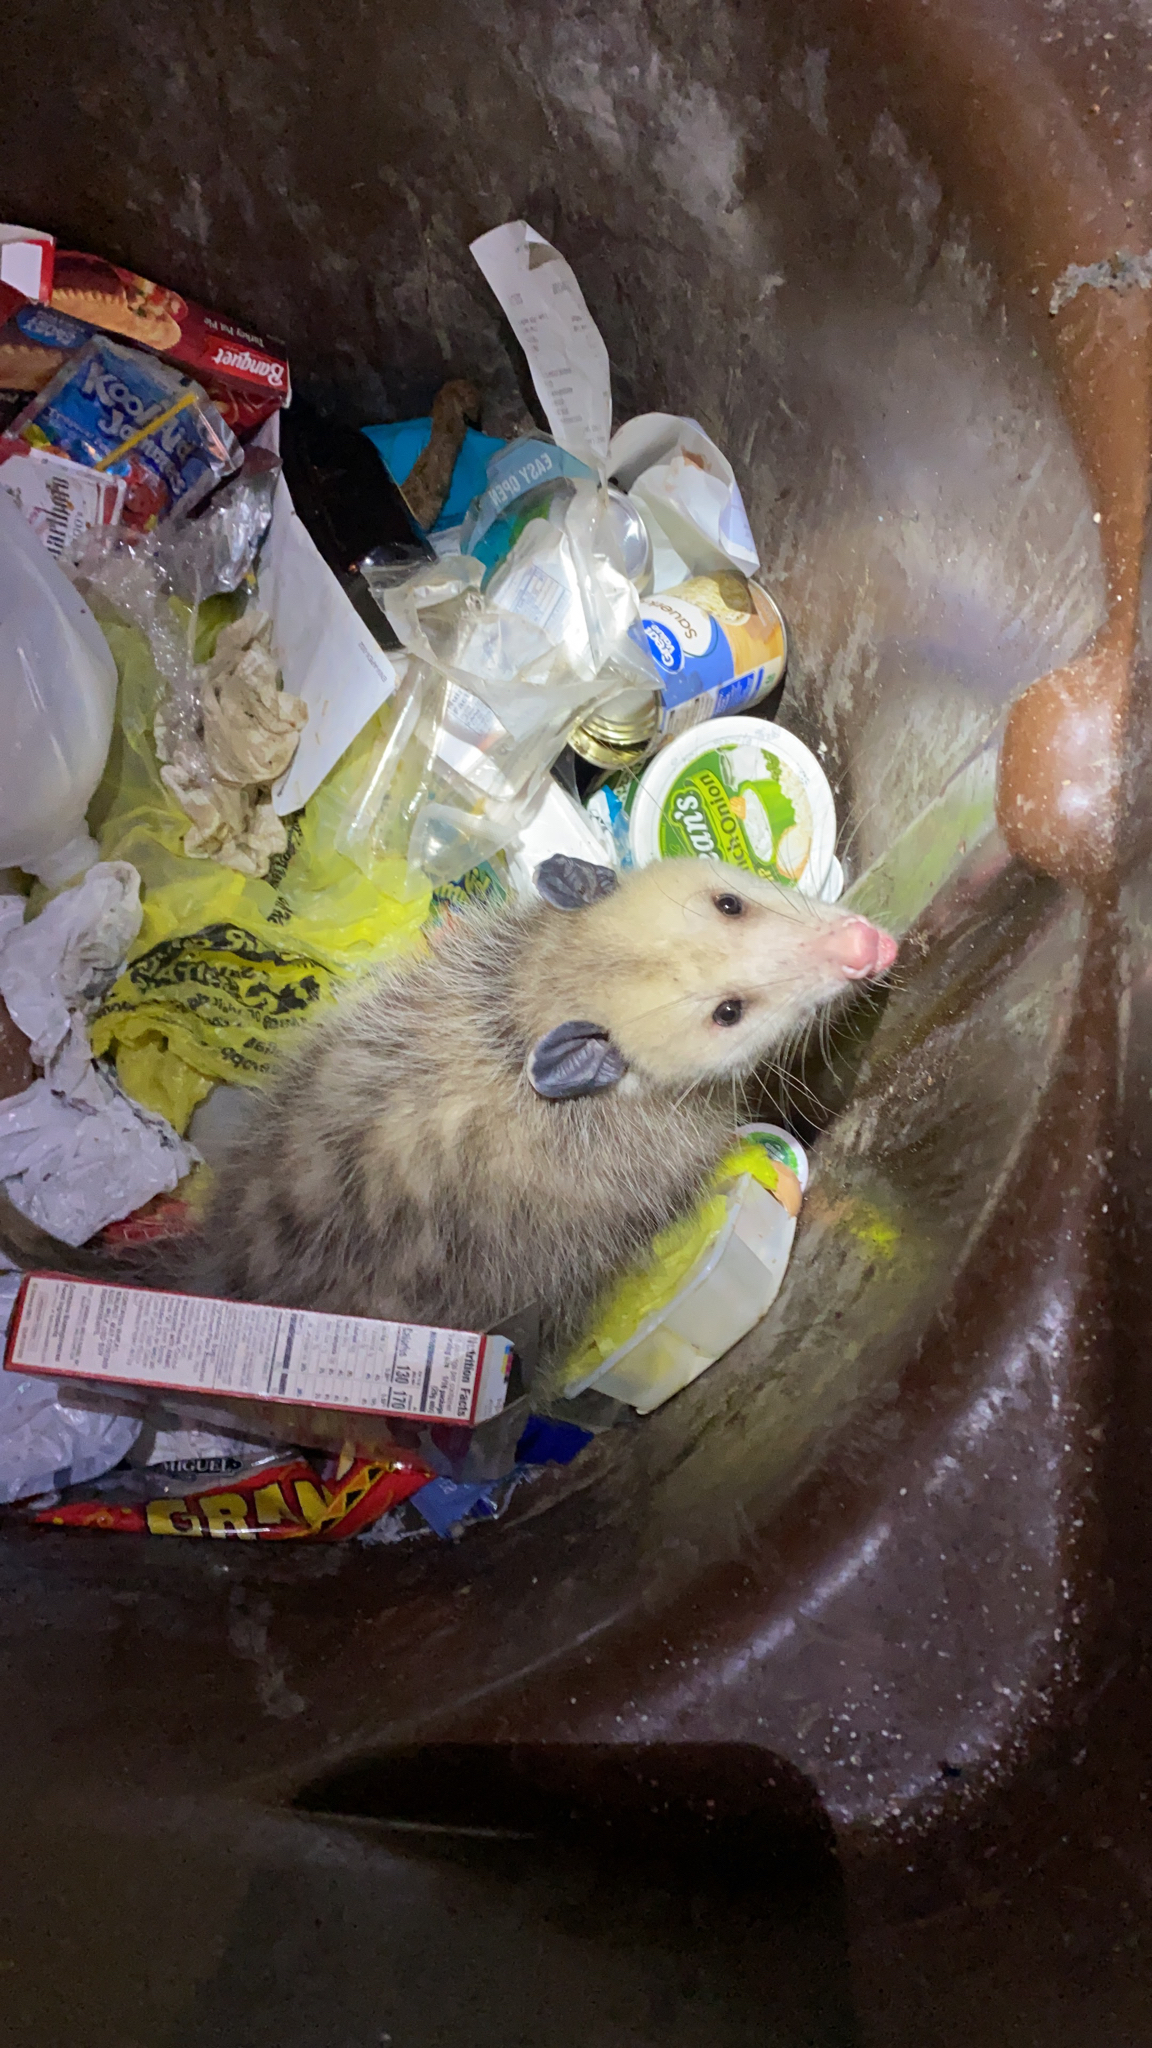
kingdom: Animalia
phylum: Chordata
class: Mammalia
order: Didelphimorphia
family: Didelphidae
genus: Didelphis
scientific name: Didelphis virginiana
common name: Virginia opossum
